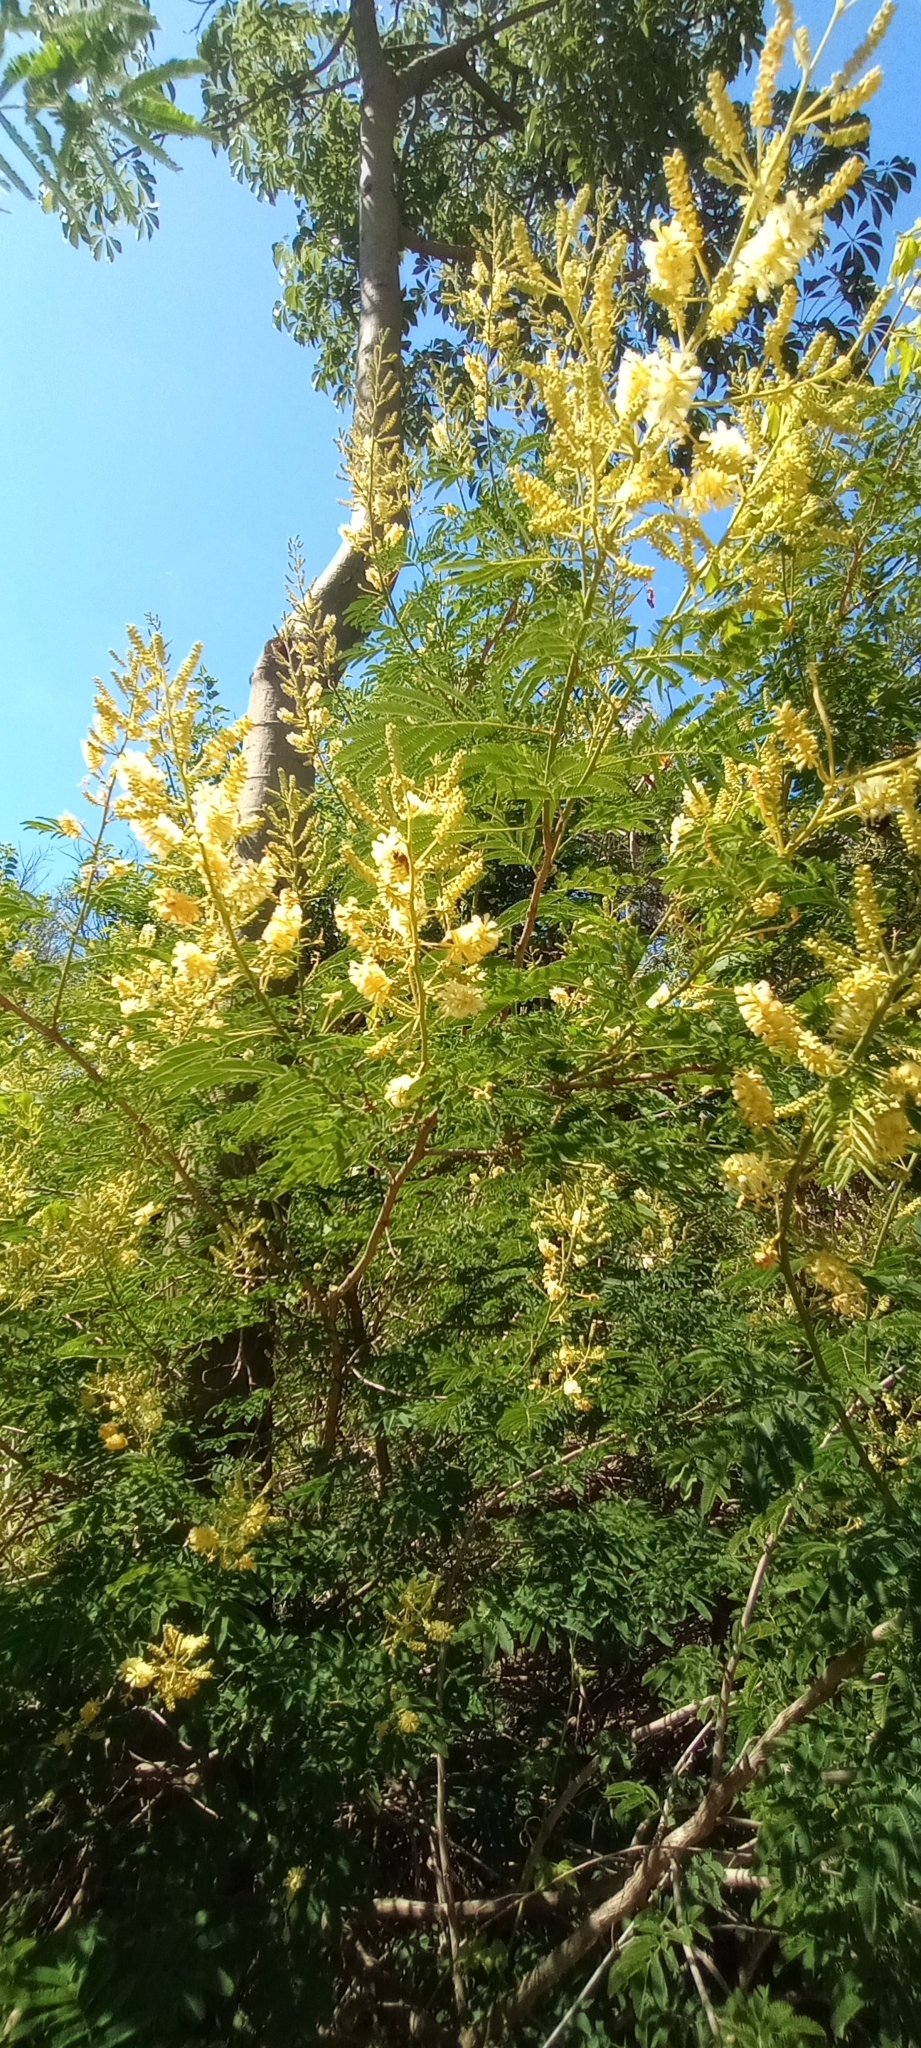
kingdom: Plantae
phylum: Tracheophyta
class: Magnoliopsida
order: Fabales
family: Fabaceae
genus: Senegalia
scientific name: Senegalia bonariensis
